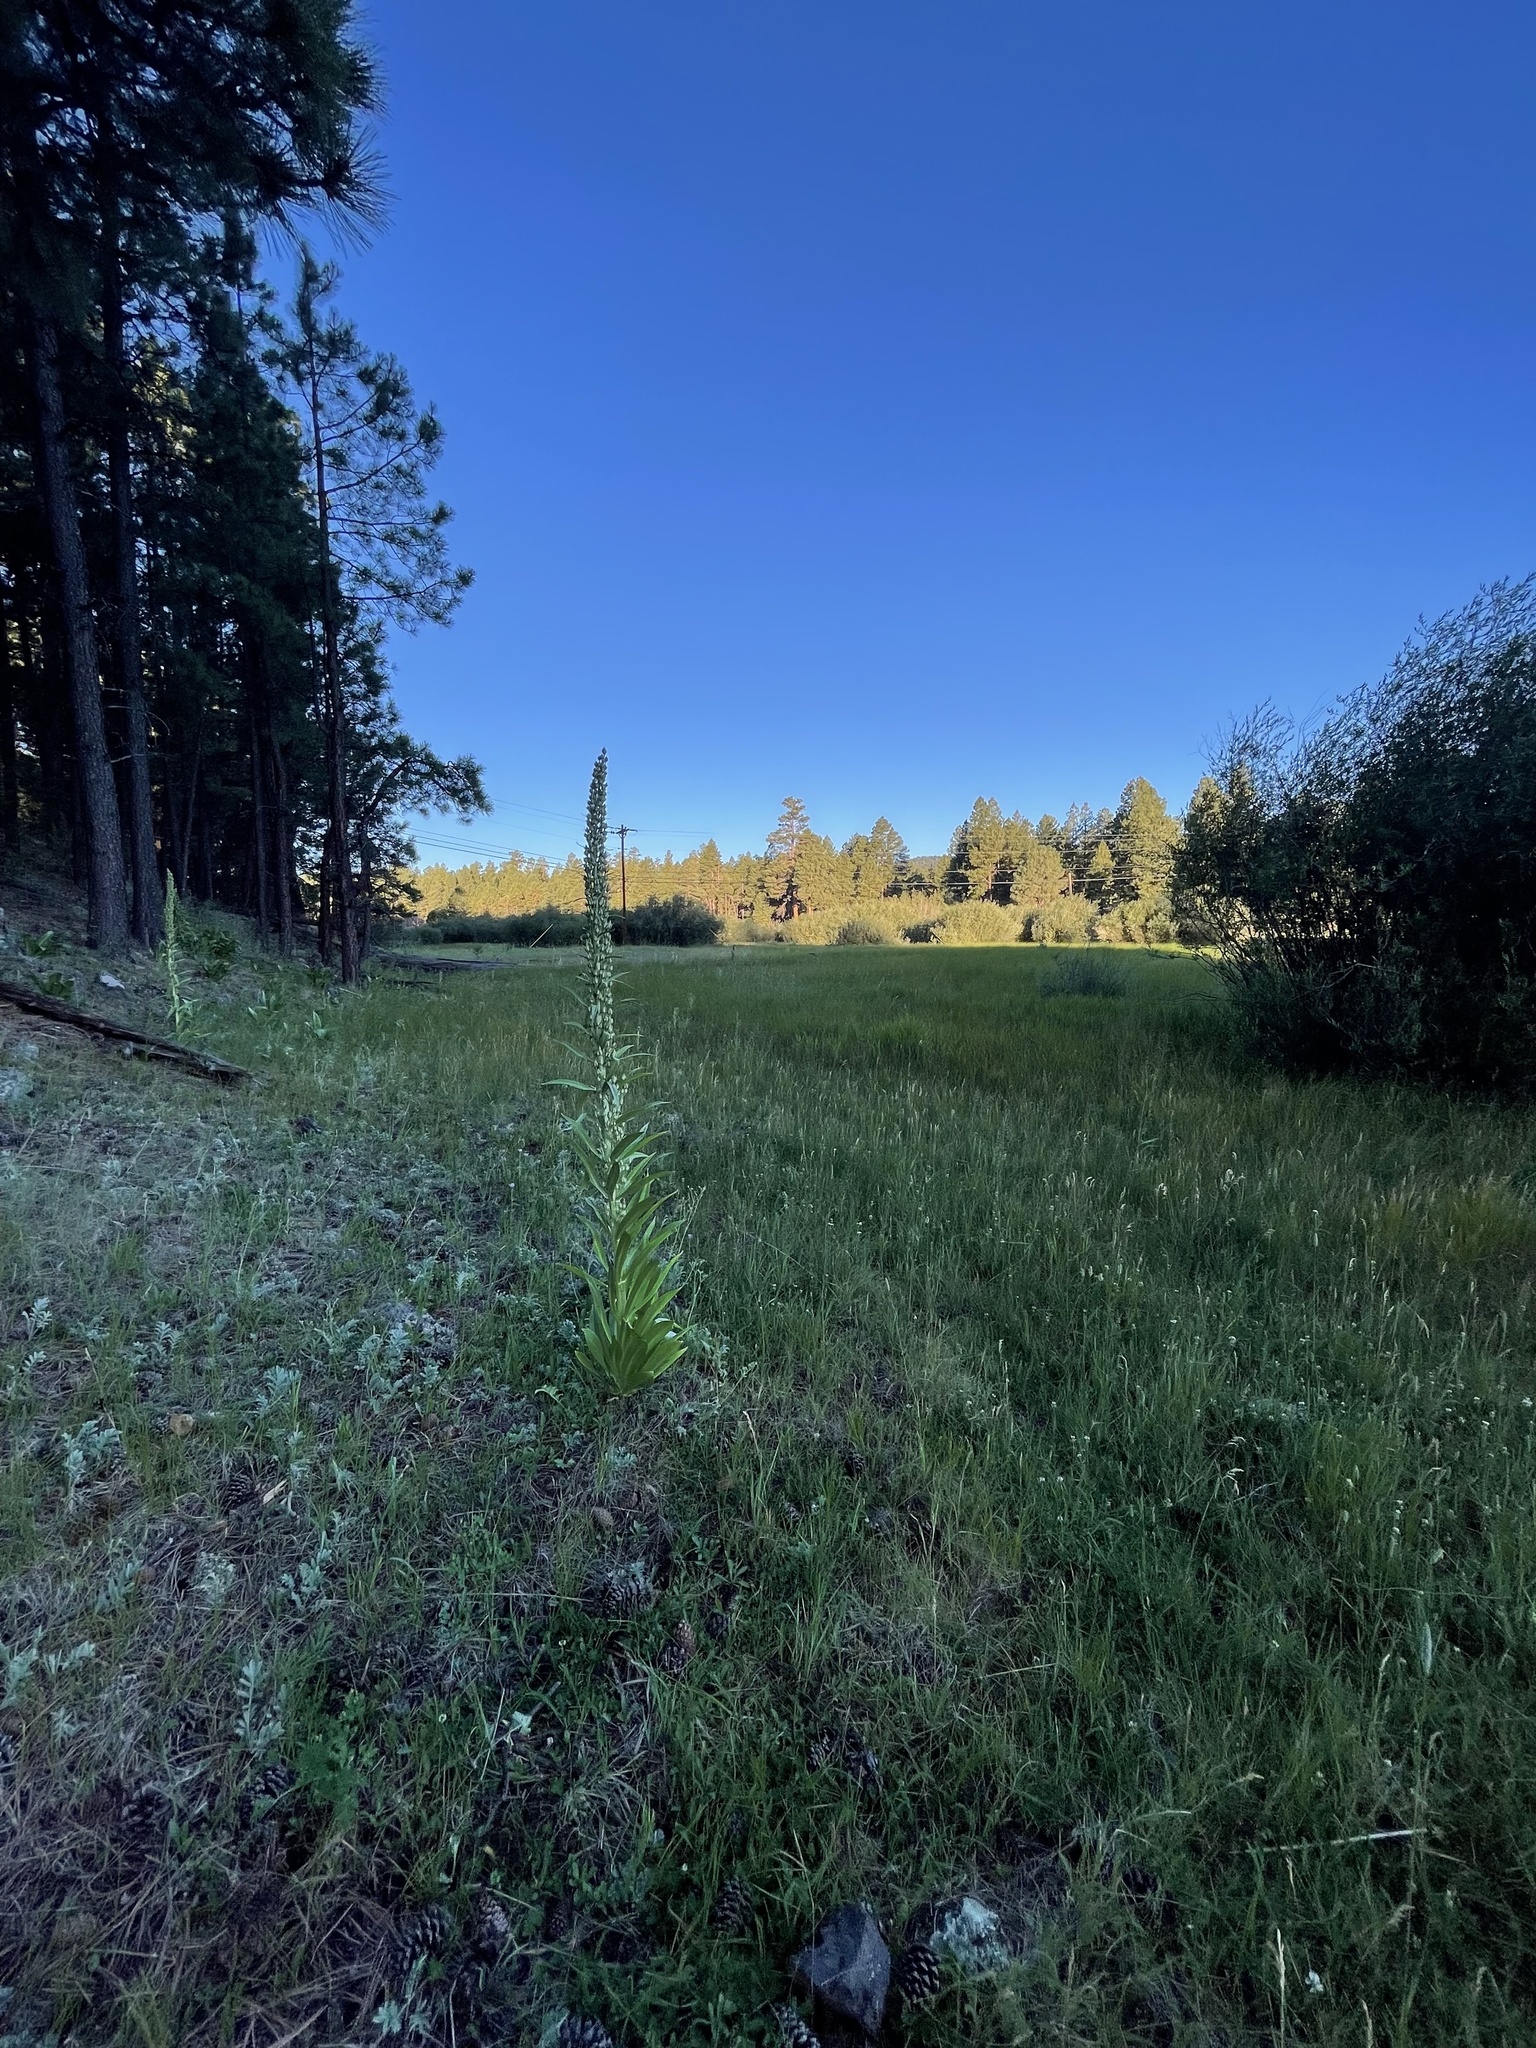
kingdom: Plantae
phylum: Tracheophyta
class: Magnoliopsida
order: Gentianales
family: Gentianaceae
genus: Frasera
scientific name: Frasera speciosa
